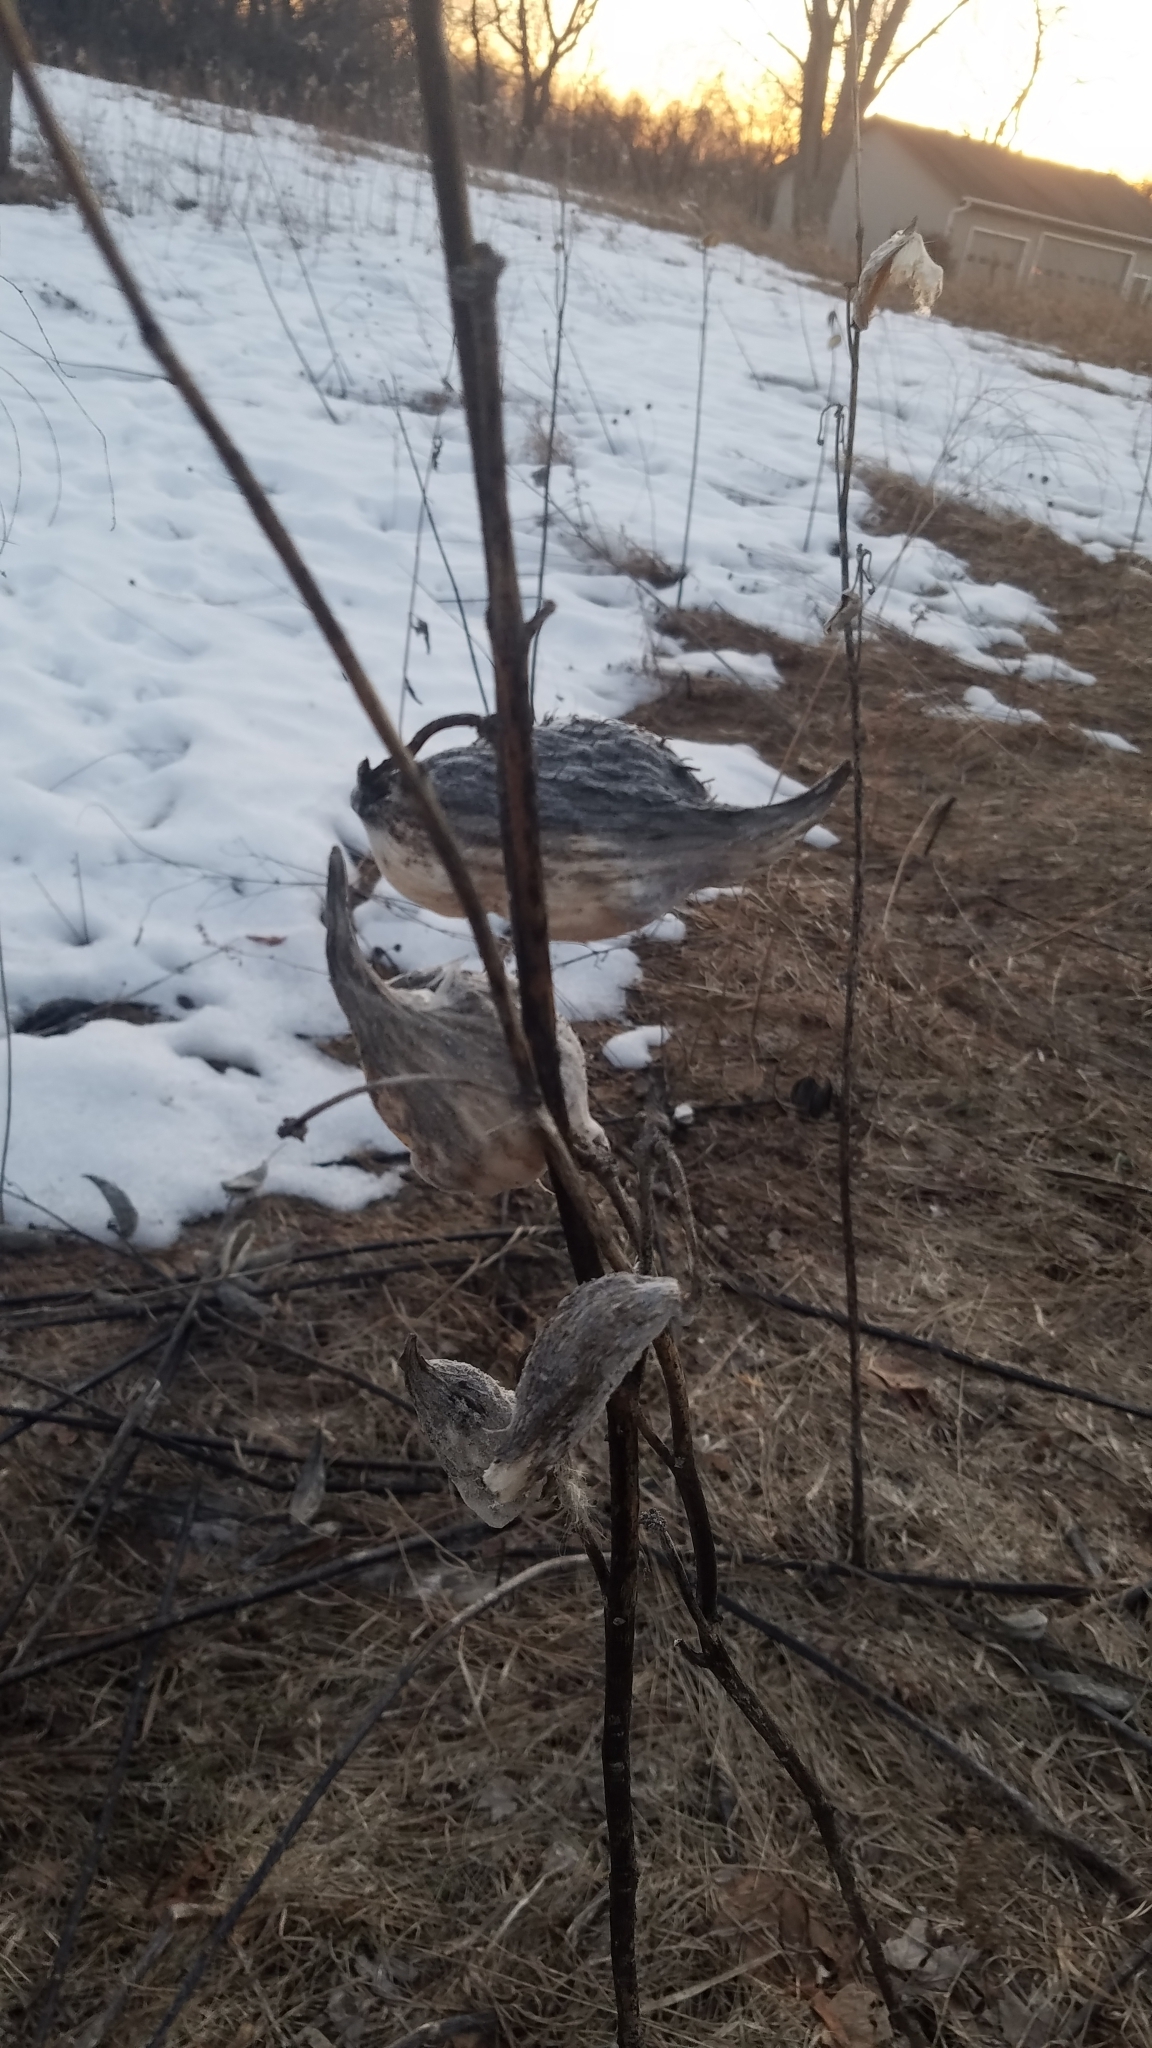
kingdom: Plantae
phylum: Tracheophyta
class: Magnoliopsida
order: Gentianales
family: Apocynaceae
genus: Asclepias
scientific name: Asclepias syriaca
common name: Common milkweed
